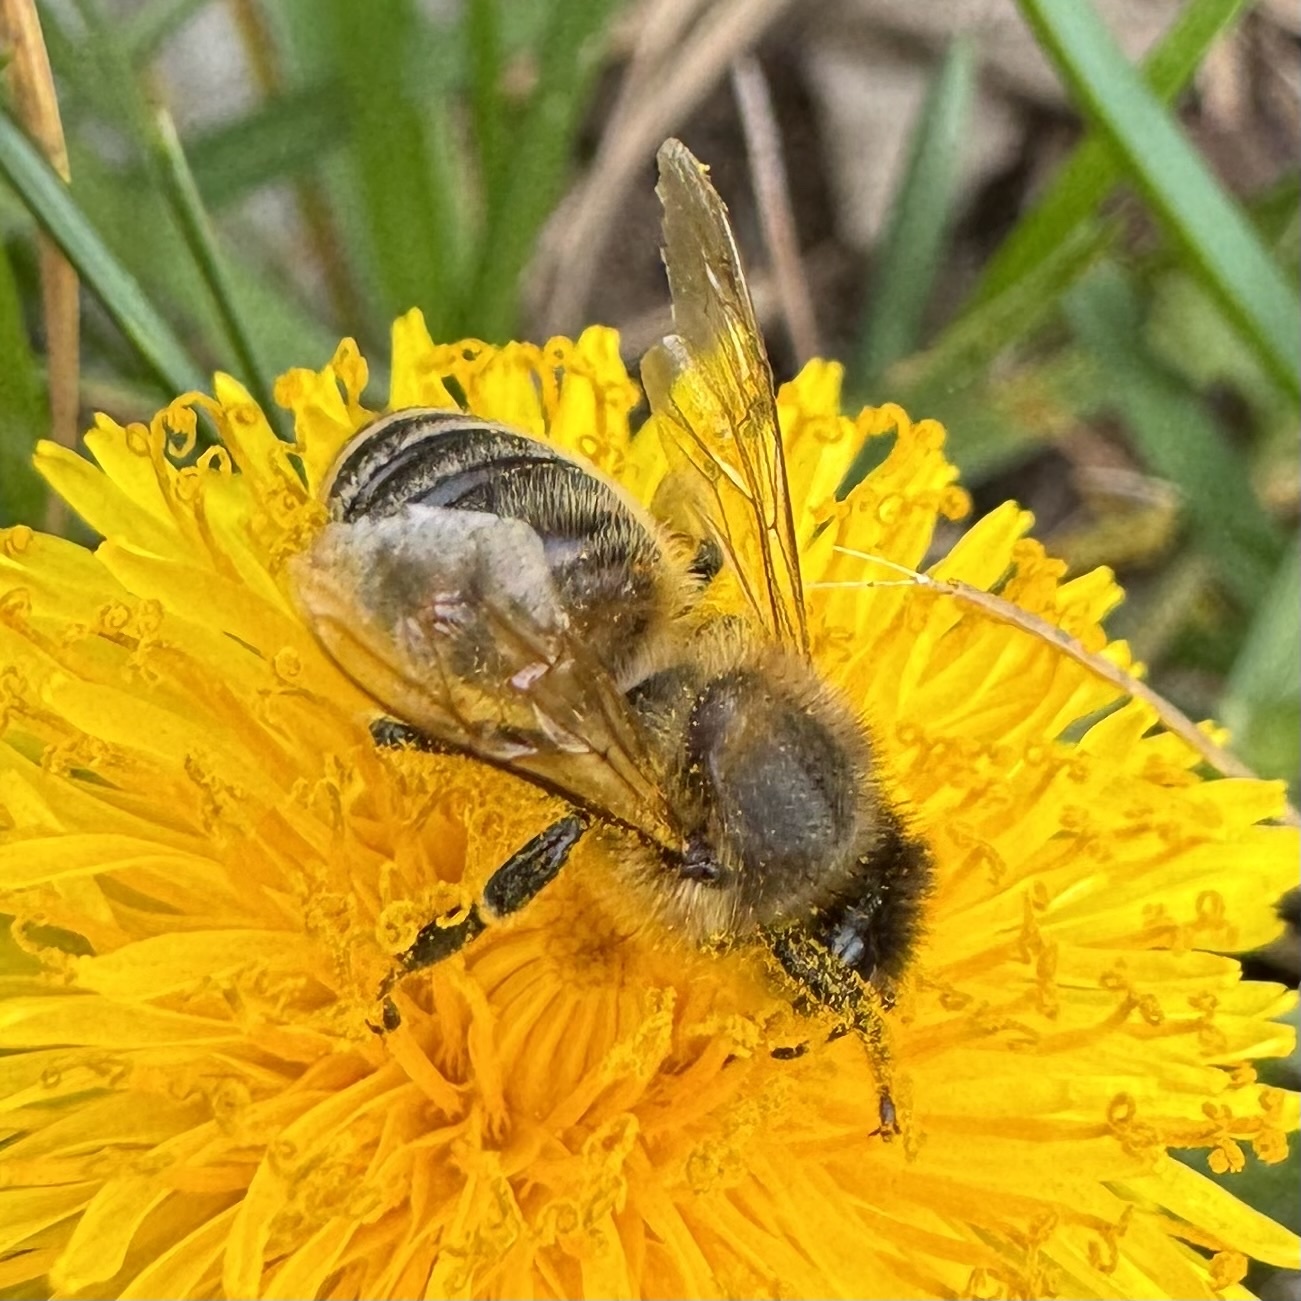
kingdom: Animalia
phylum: Arthropoda
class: Insecta
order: Hymenoptera
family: Apidae
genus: Apis
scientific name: Apis mellifera
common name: Honey bee
